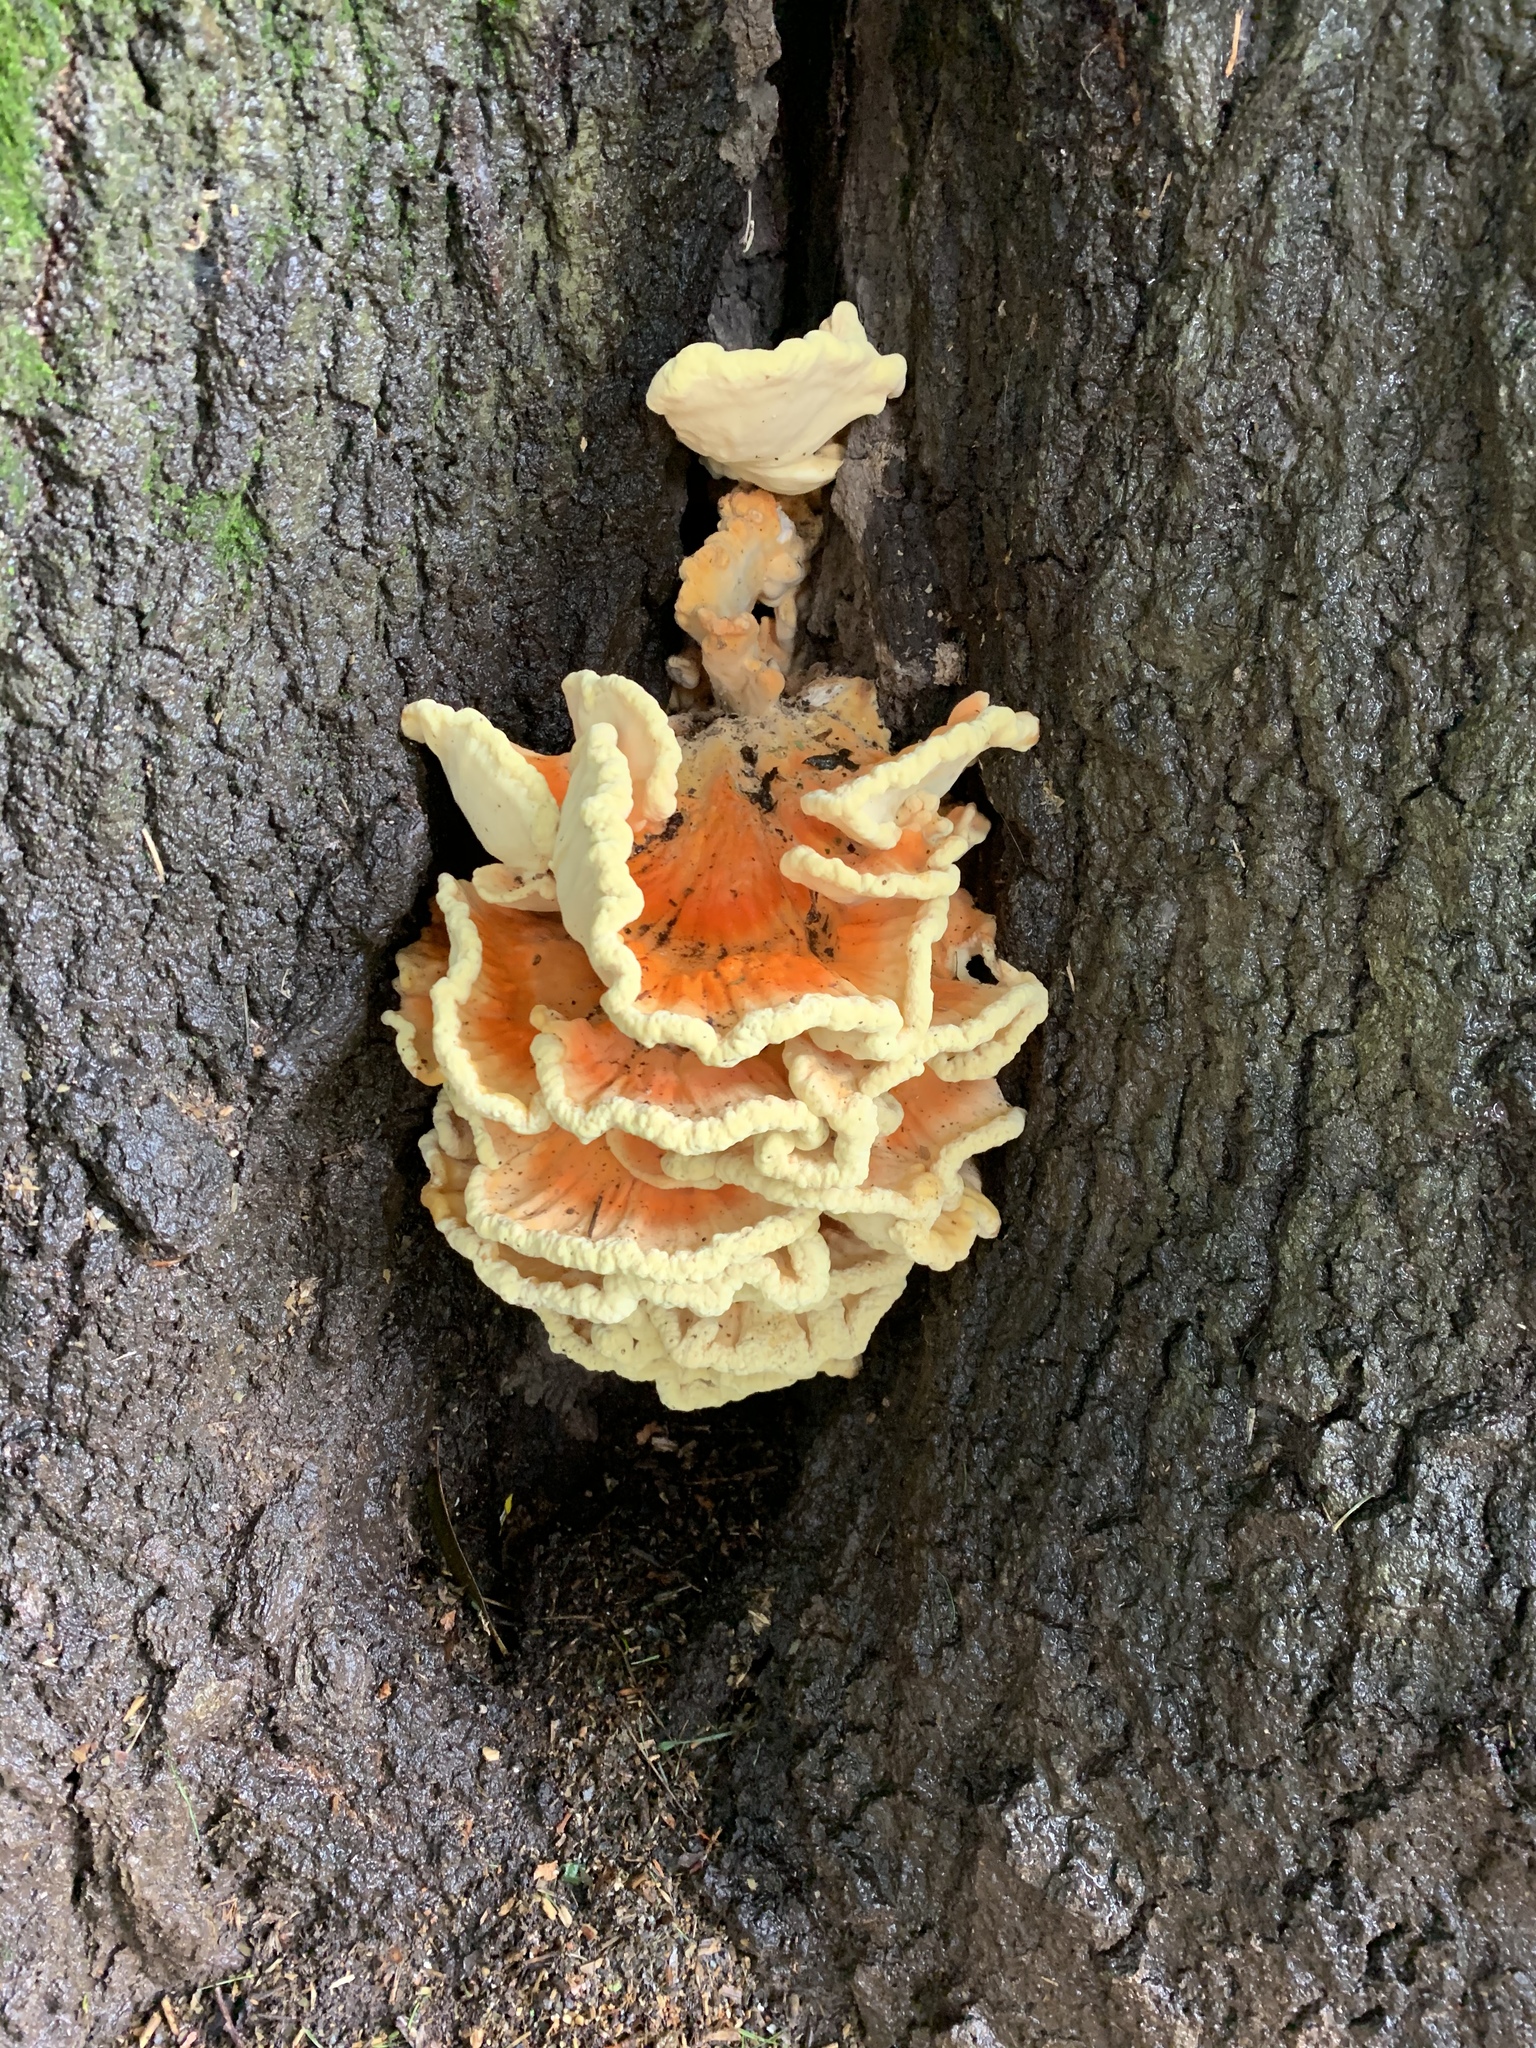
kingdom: Fungi
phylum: Basidiomycota
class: Agaricomycetes
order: Polyporales
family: Laetiporaceae
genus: Laetiporus
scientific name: Laetiporus sulphureus
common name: Chicken of the woods
